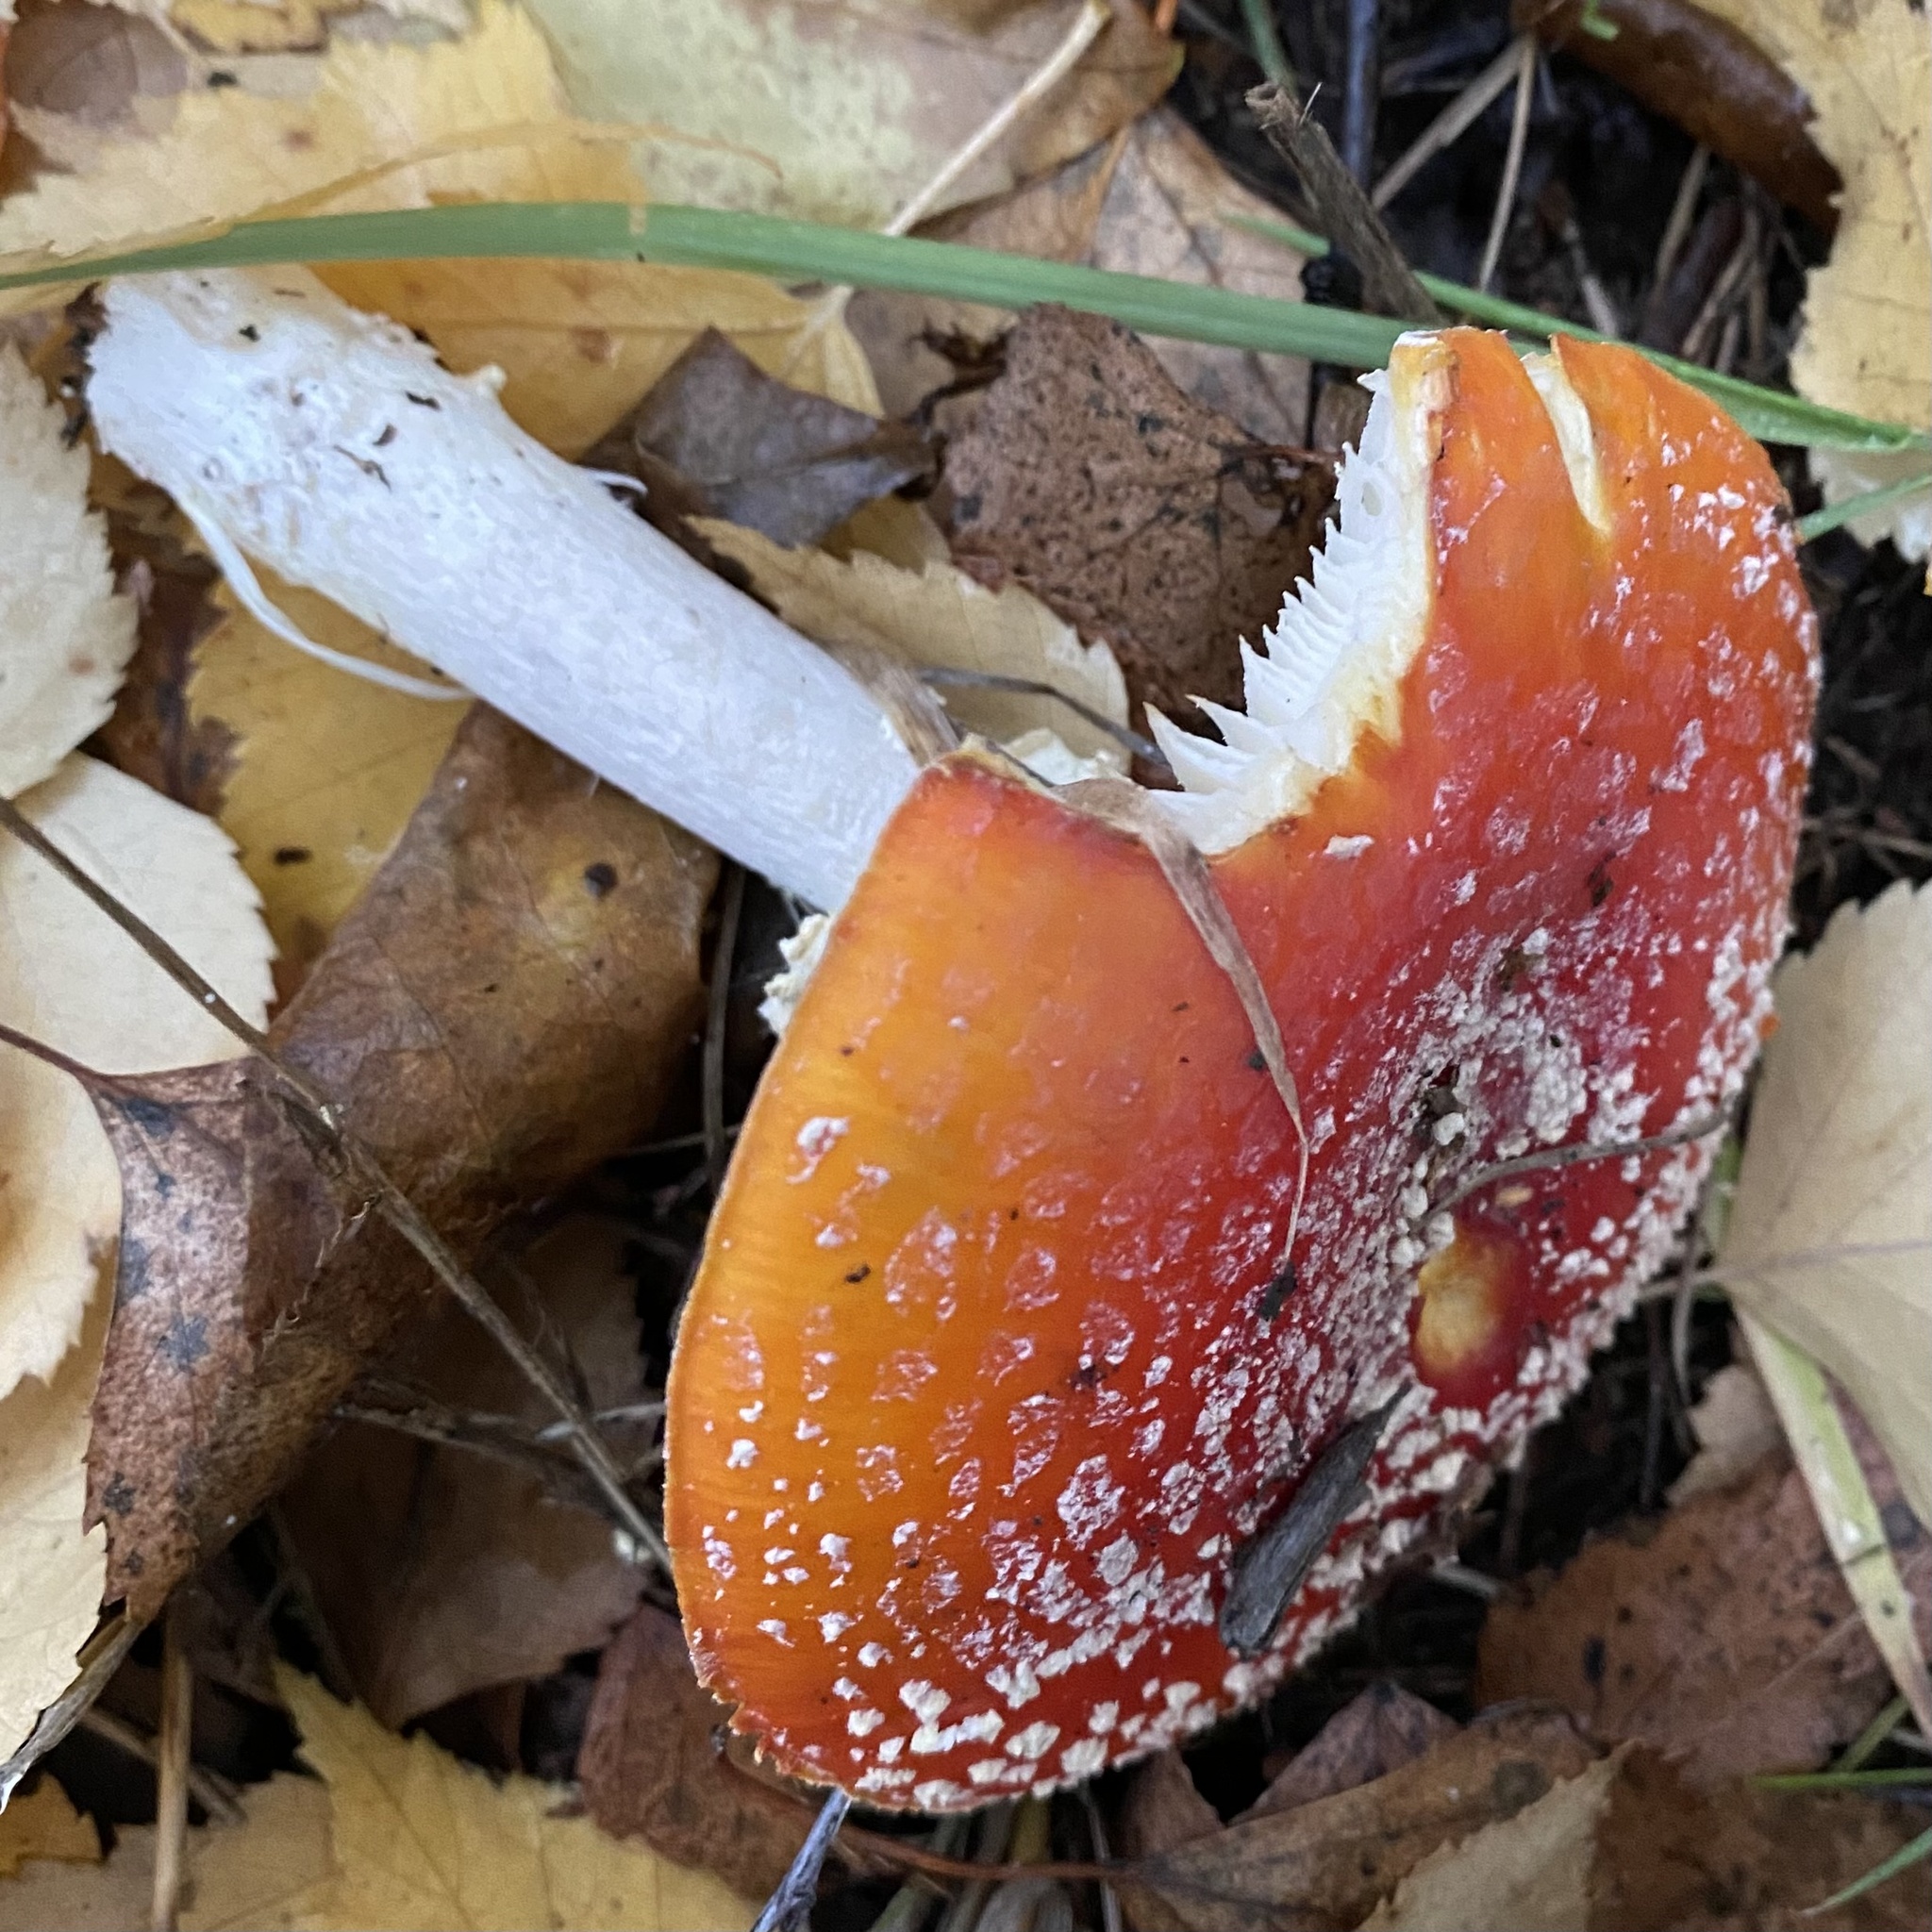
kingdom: Fungi
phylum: Basidiomycota
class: Agaricomycetes
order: Agaricales
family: Amanitaceae
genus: Amanita
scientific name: Amanita muscaria
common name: Fly agaric
